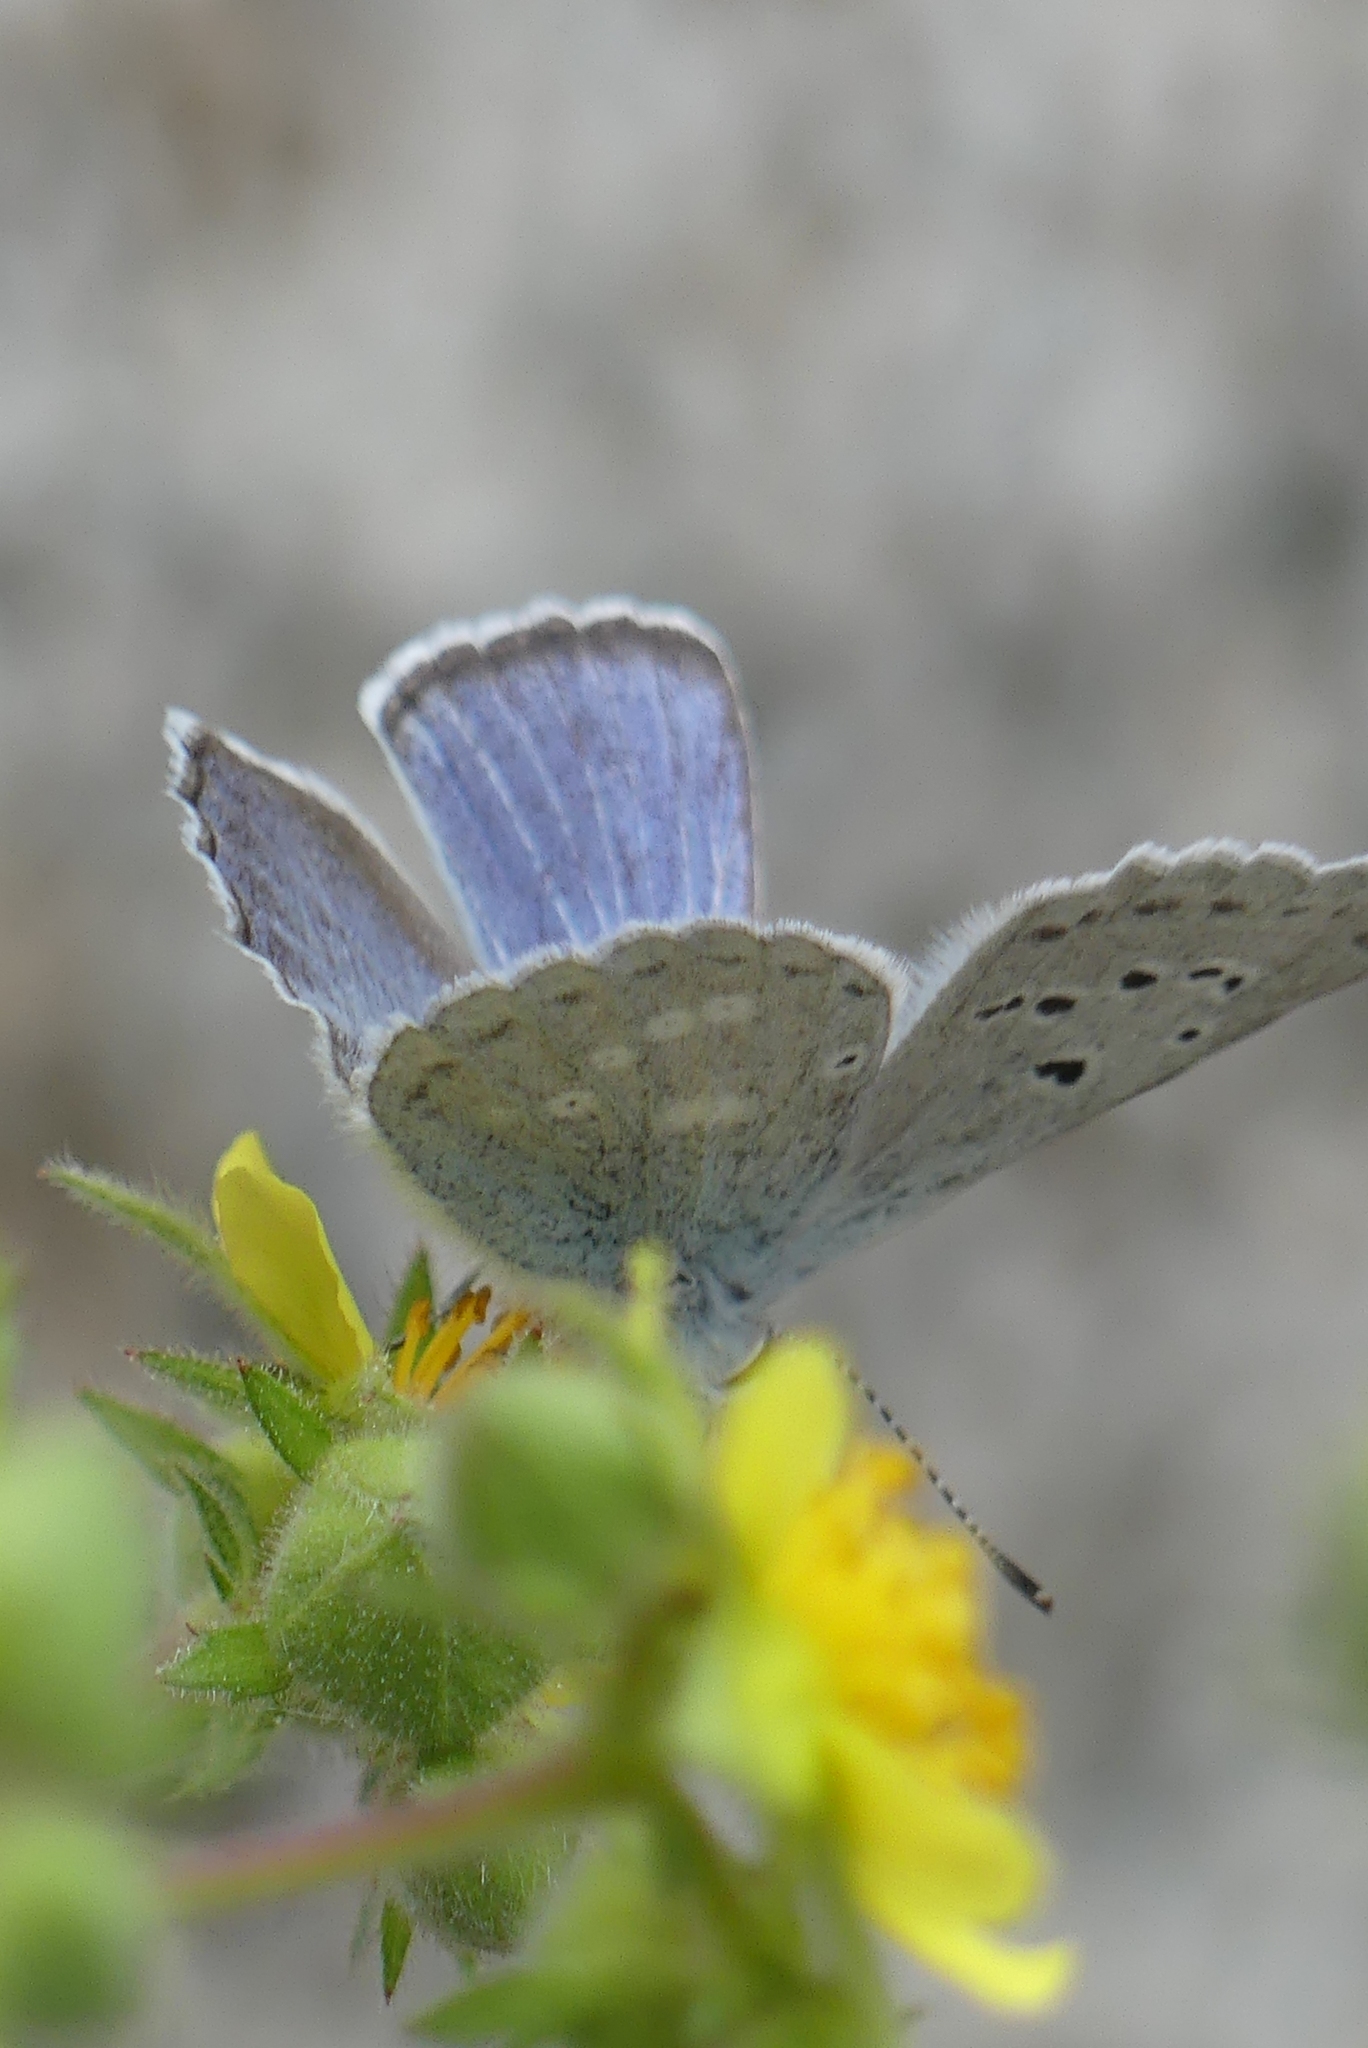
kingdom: Animalia
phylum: Arthropoda
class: Insecta
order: Lepidoptera
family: Lycaenidae
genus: Icaricia
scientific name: Icaricia icarioides
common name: Boisduval's blue
